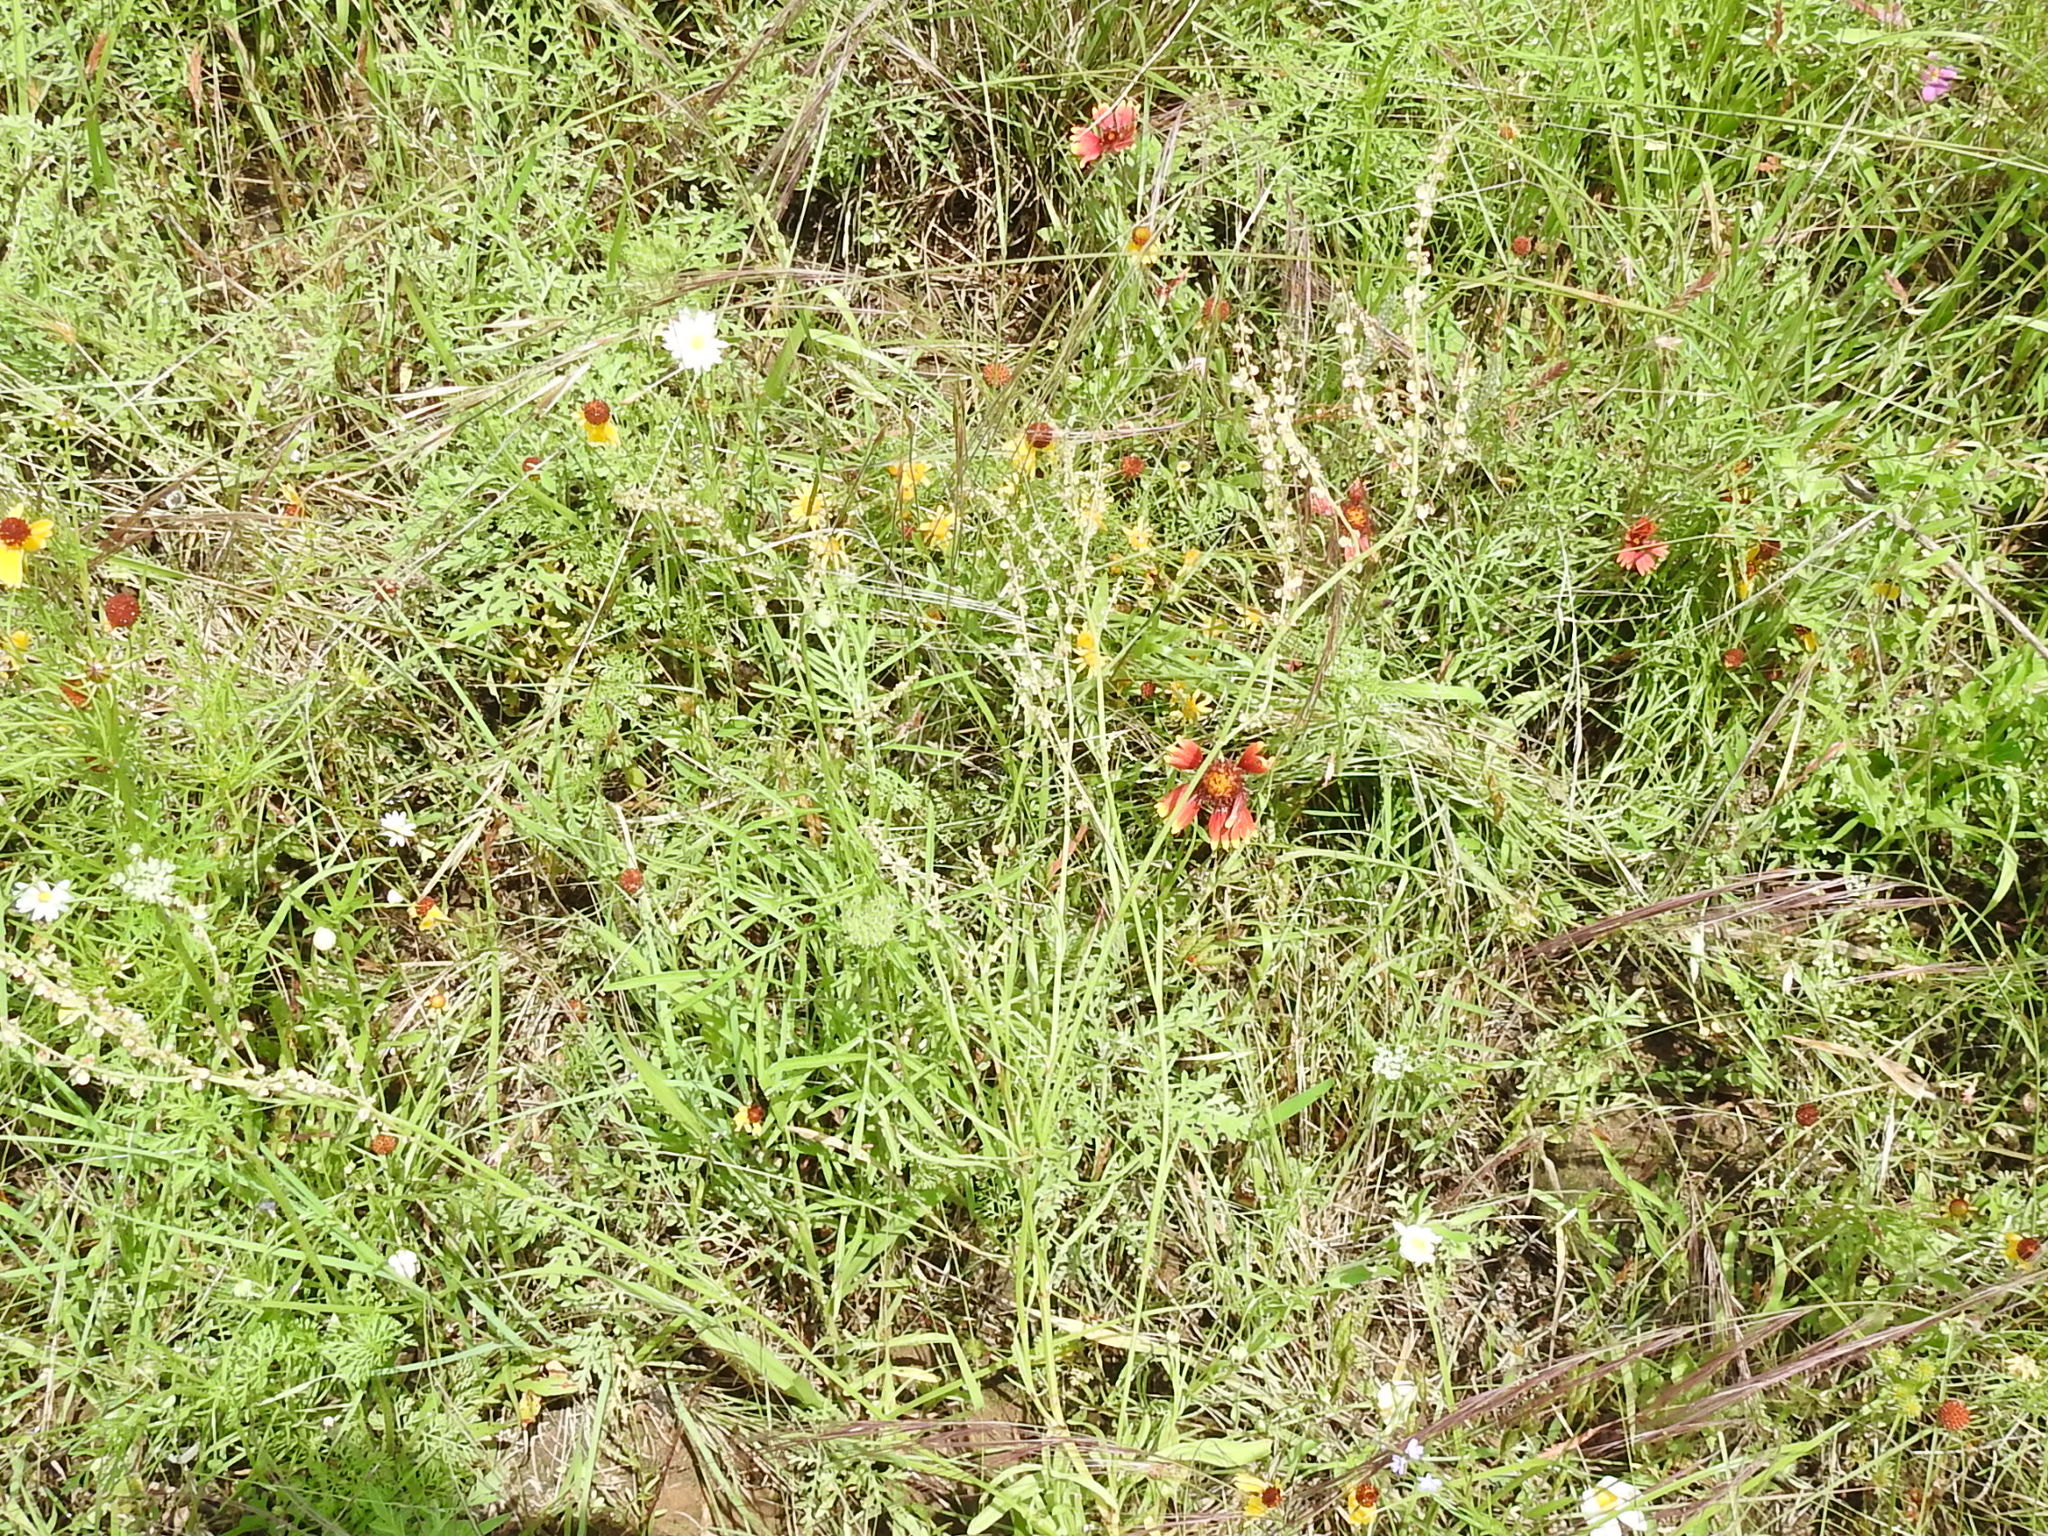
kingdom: Plantae
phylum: Tracheophyta
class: Magnoliopsida
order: Caryophyllales
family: Polygonaceae
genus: Rumex
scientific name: Rumex hastatulus
